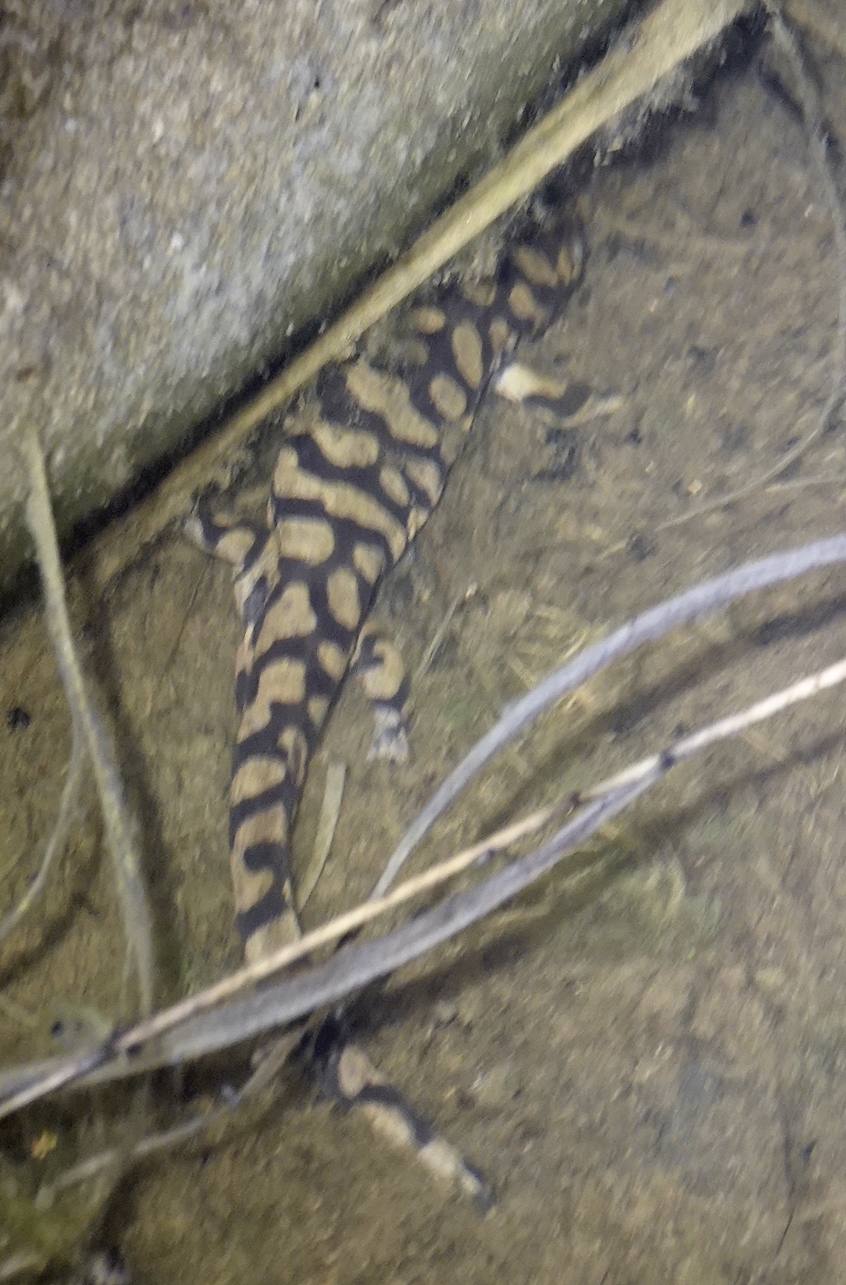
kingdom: Animalia
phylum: Chordata
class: Amphibia
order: Caudata
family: Ambystomatidae
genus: Ambystoma
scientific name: Ambystoma mavortium
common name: Western tiger salamander
